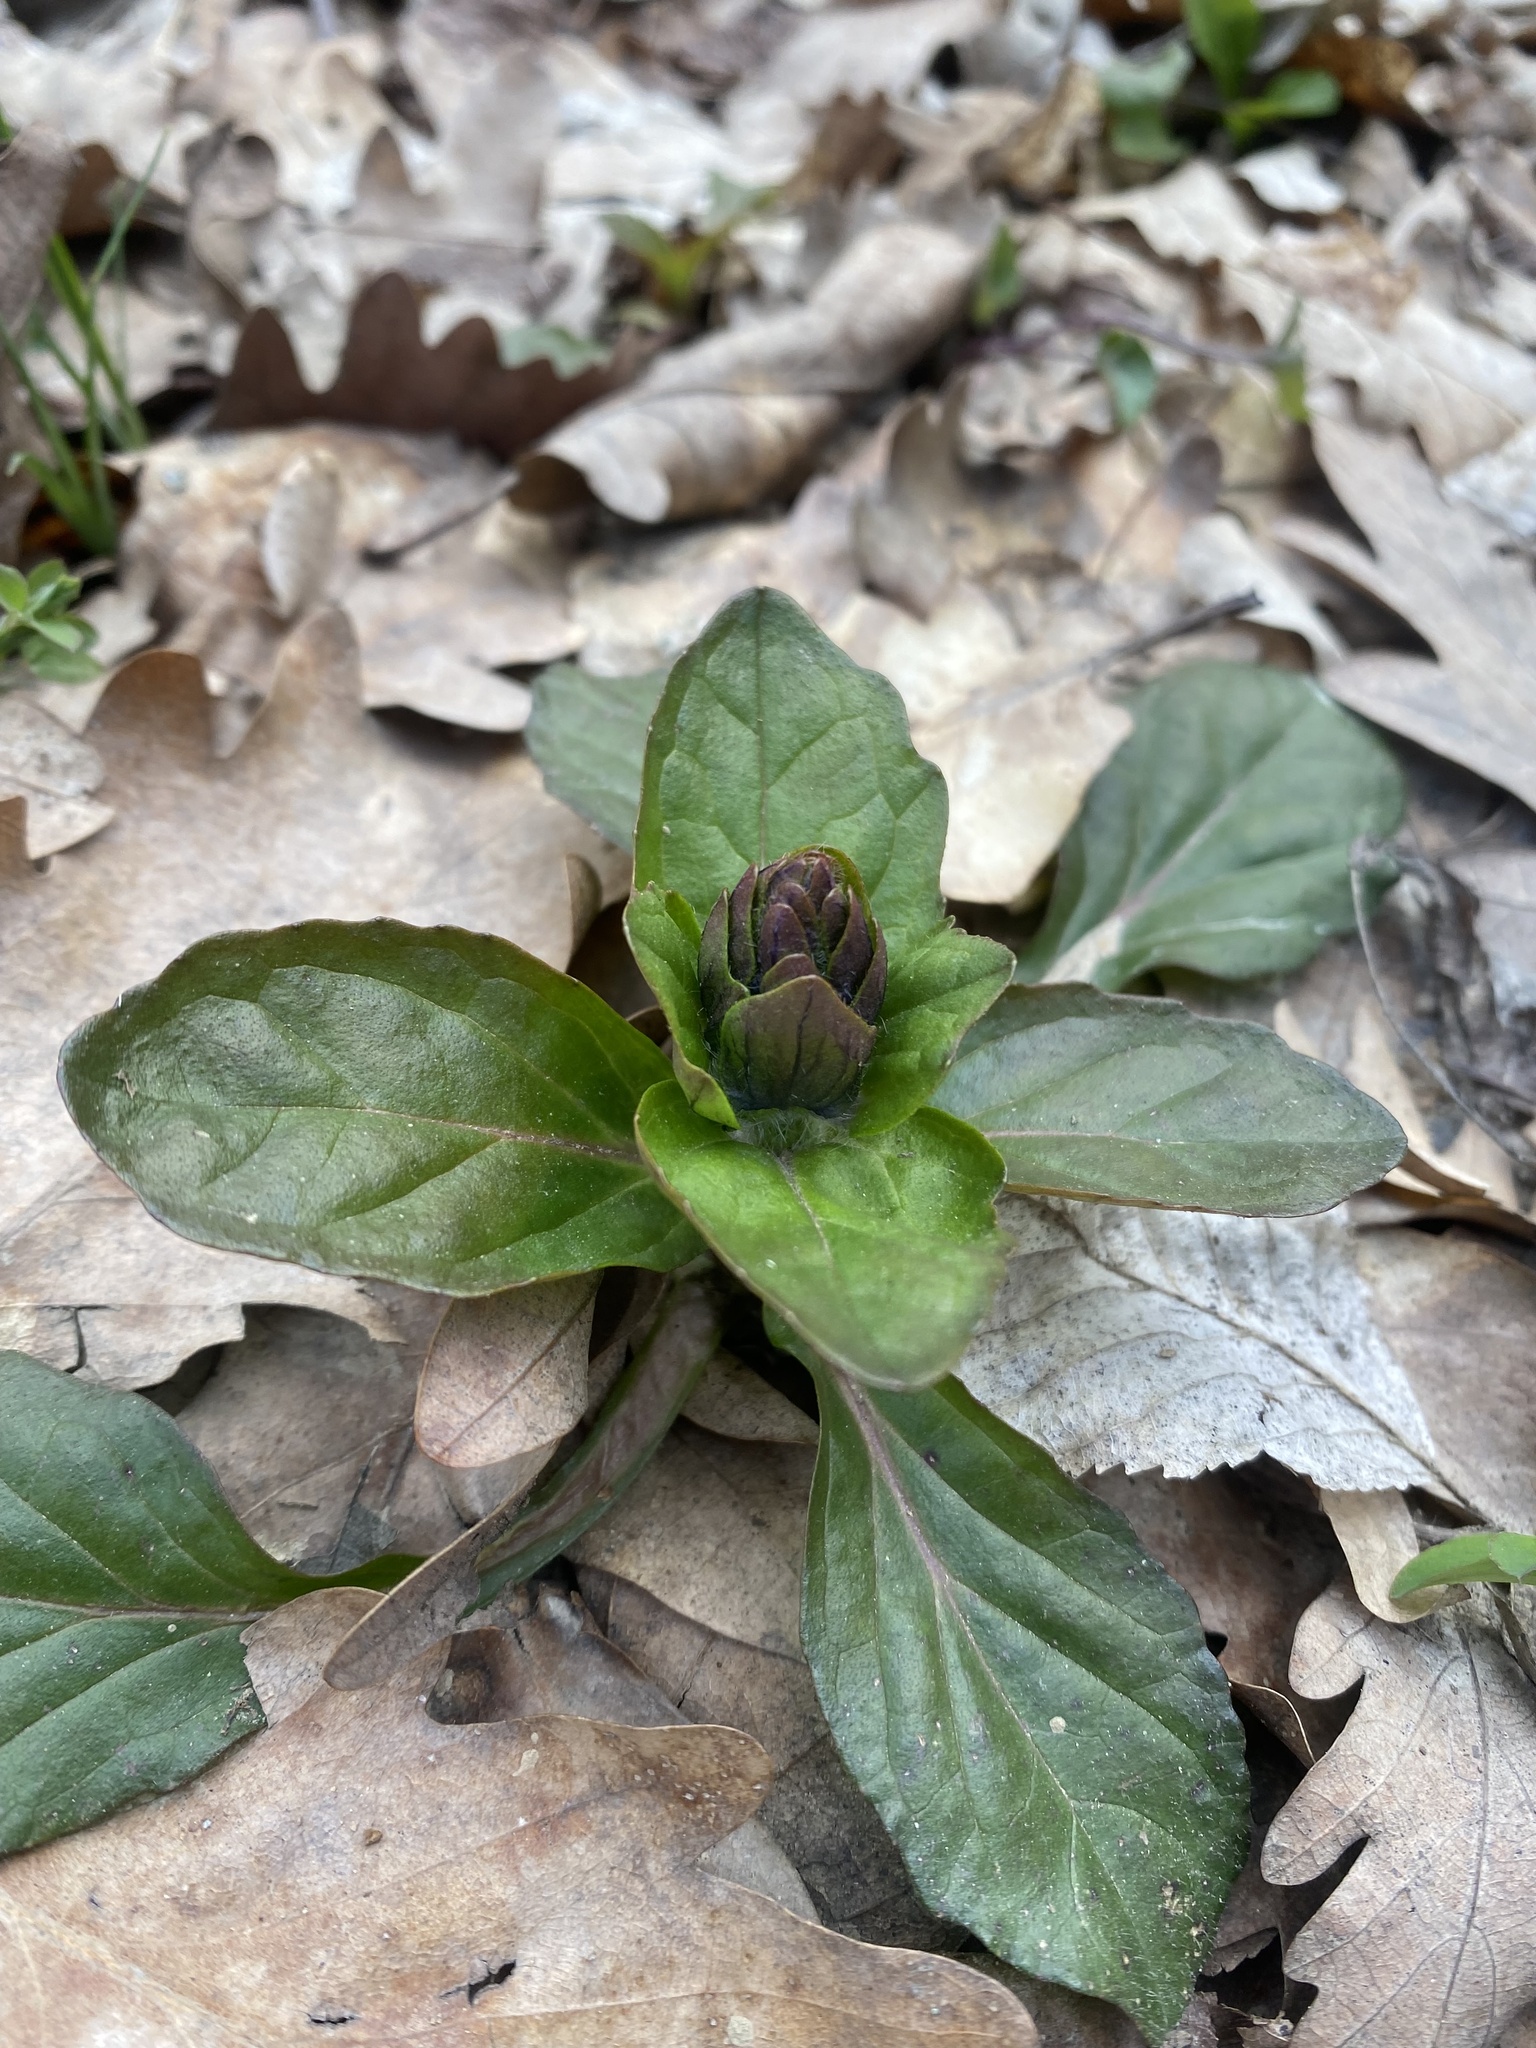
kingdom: Plantae
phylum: Tracheophyta
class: Magnoliopsida
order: Lamiales
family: Lamiaceae
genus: Ajuga
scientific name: Ajuga reptans
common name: Bugle
